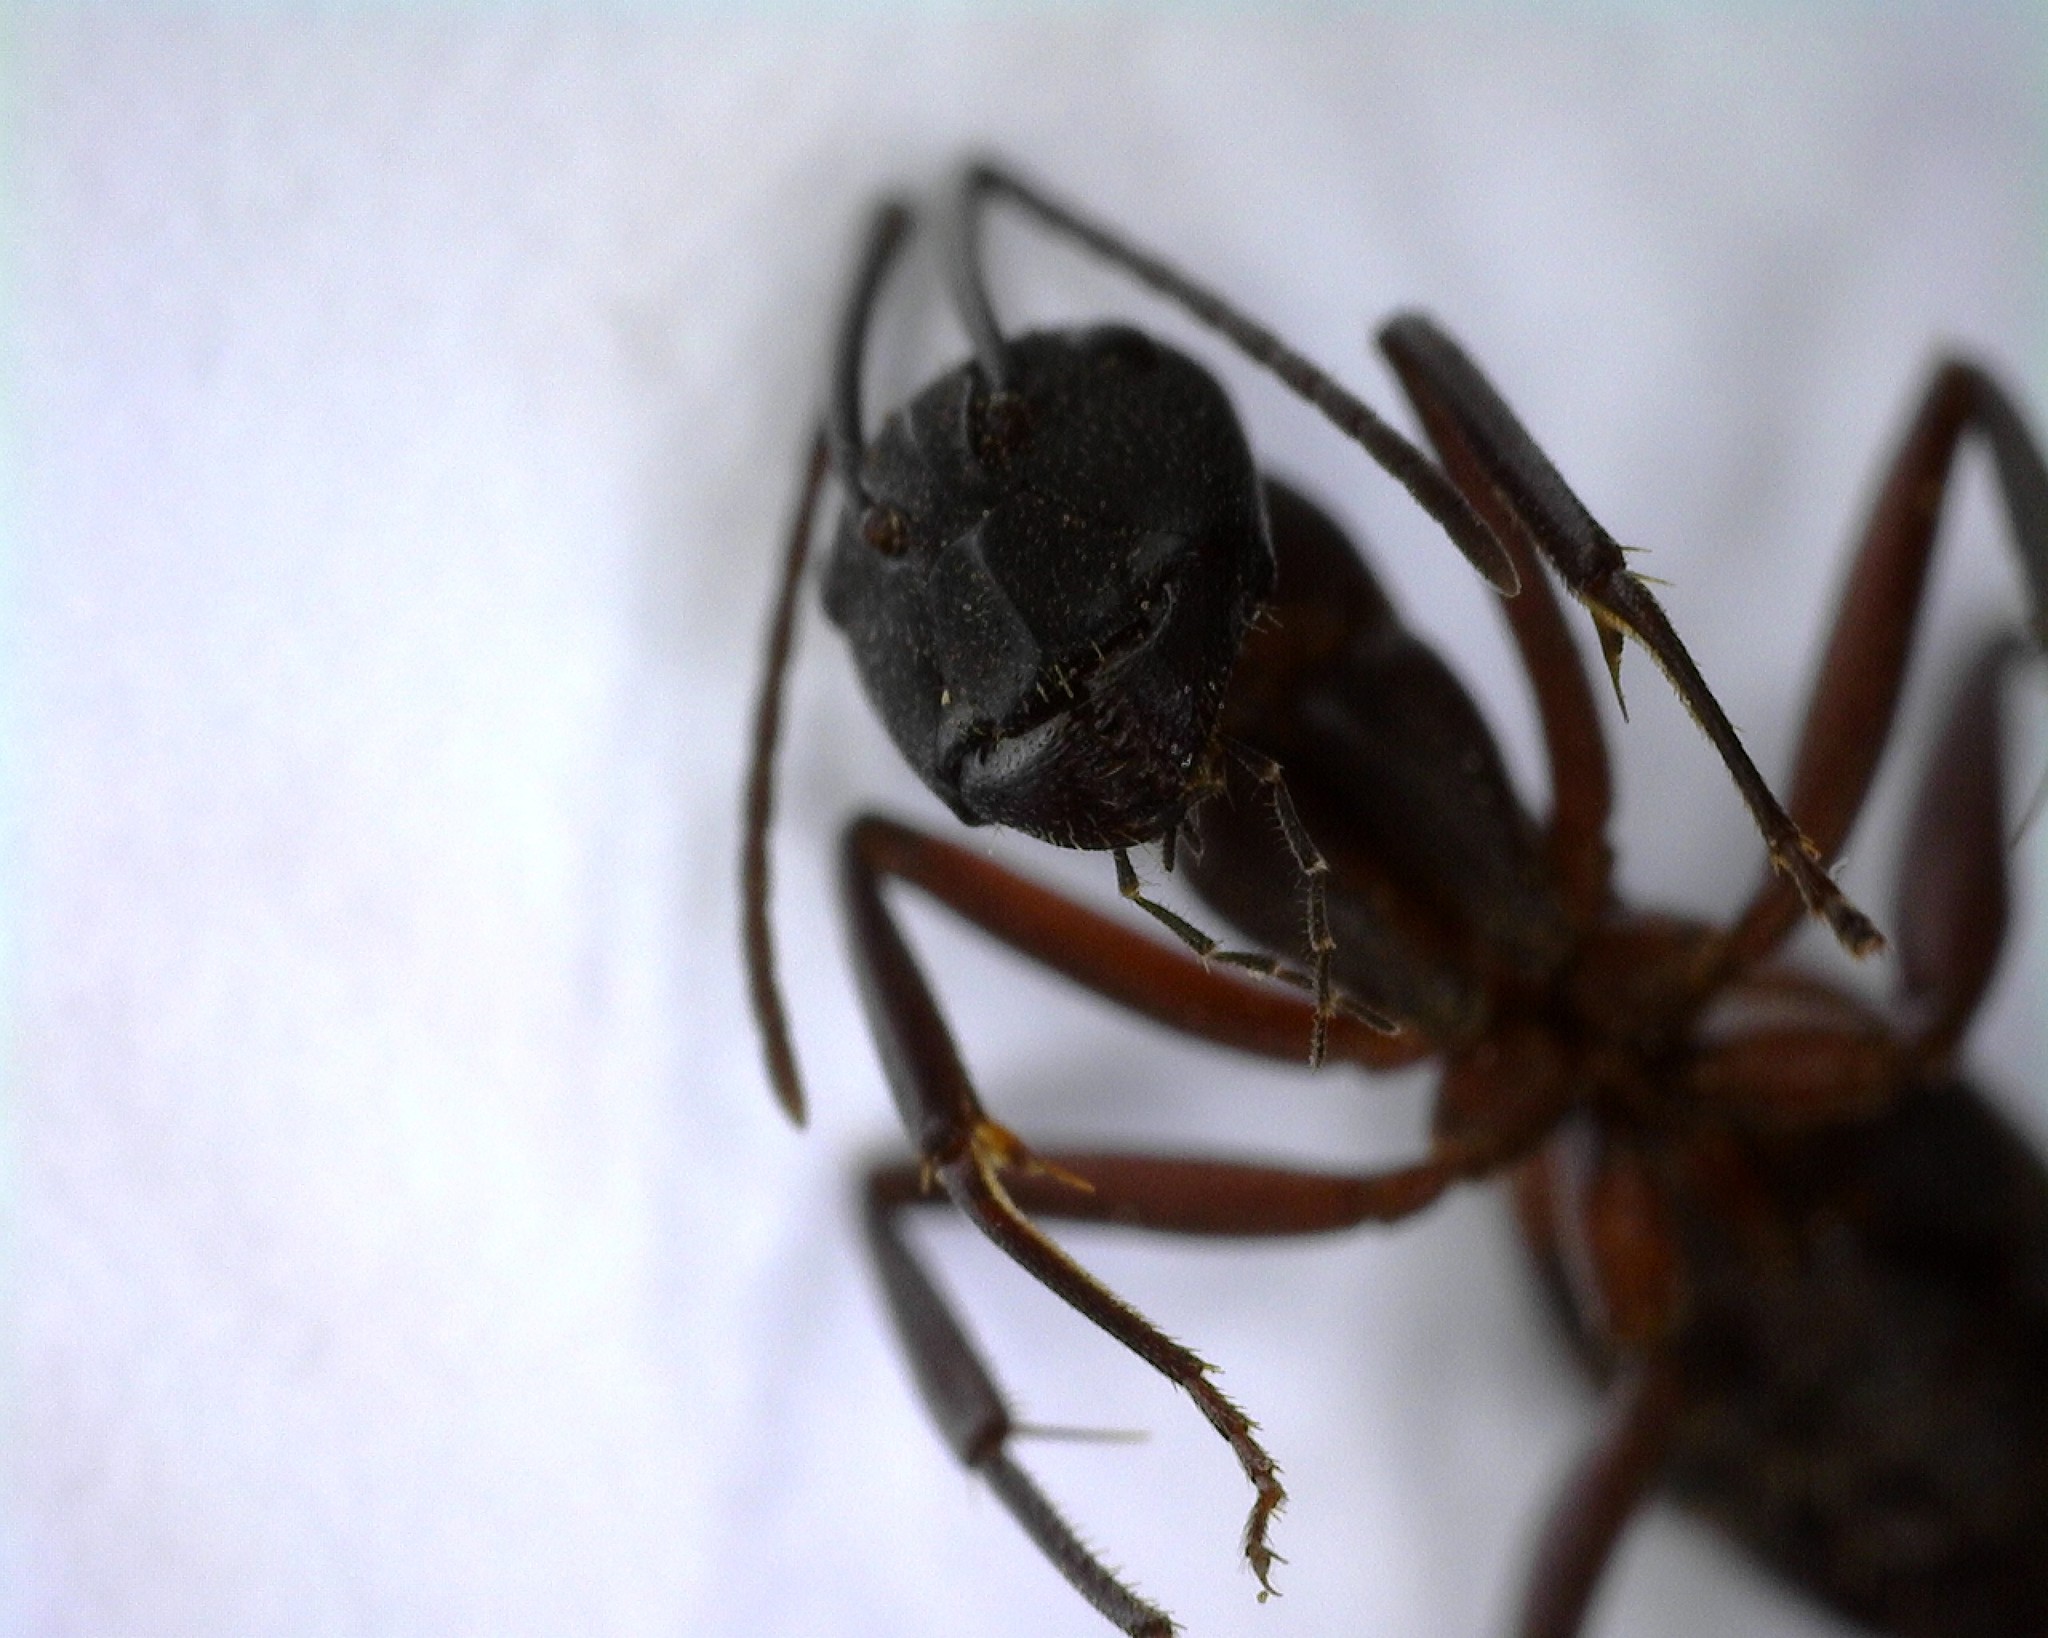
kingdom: Animalia
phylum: Arthropoda
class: Insecta
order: Hymenoptera
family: Formicidae
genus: Camponotus
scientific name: Camponotus cruentatus
